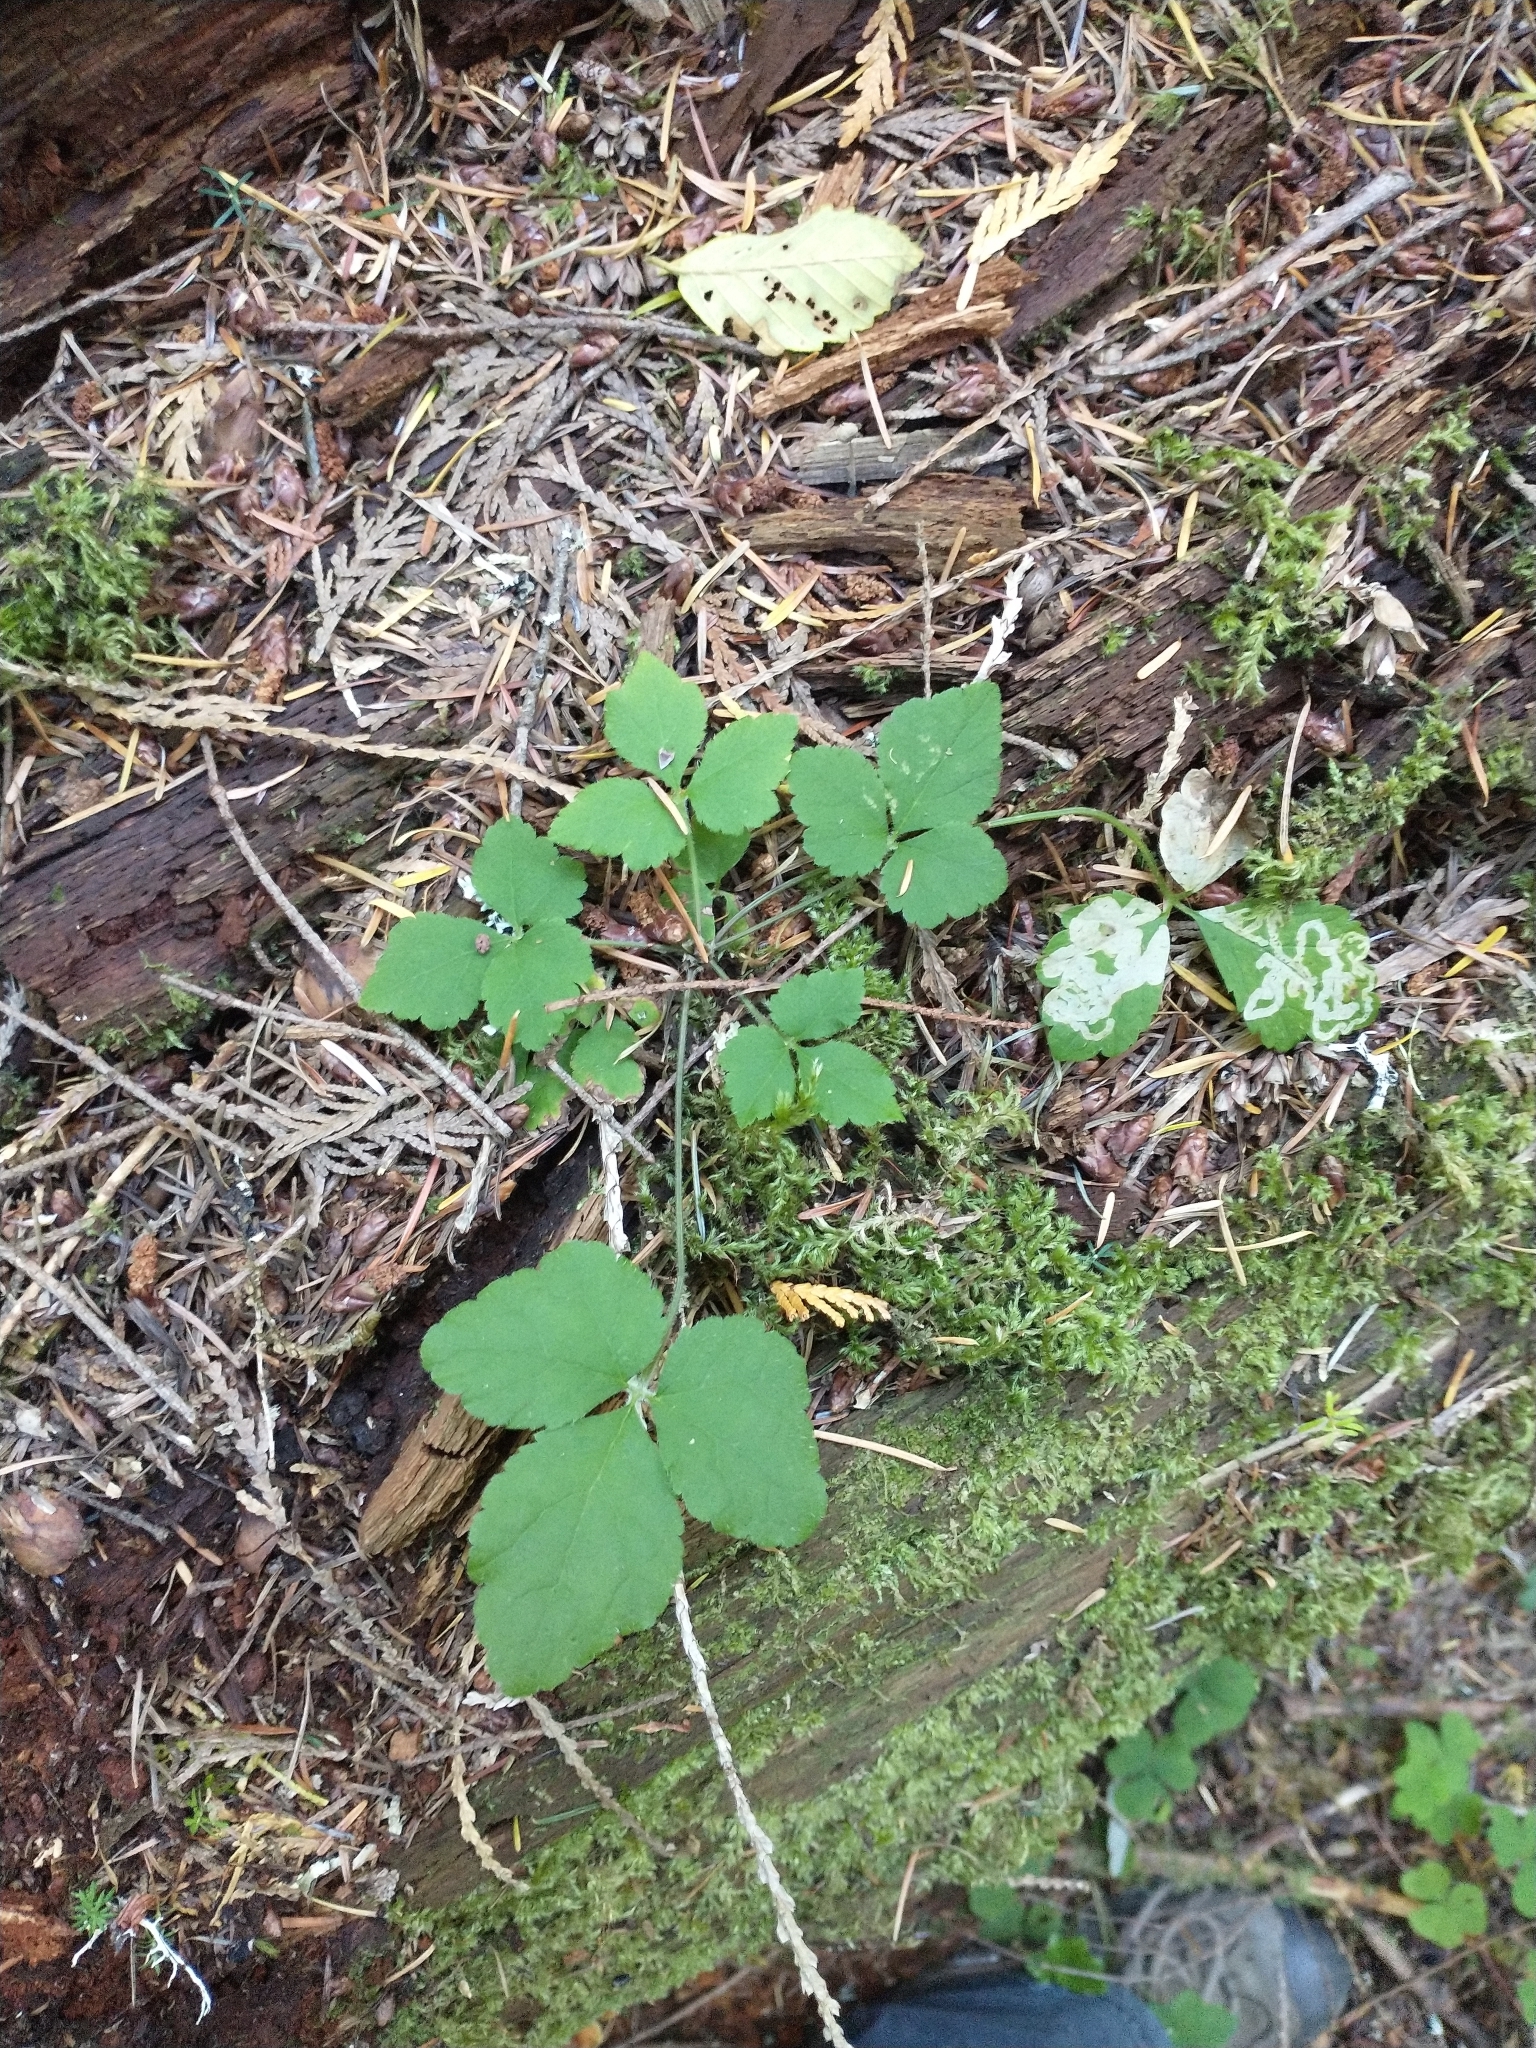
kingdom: Plantae
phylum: Tracheophyta
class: Magnoliopsida
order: Saxifragales
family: Saxifragaceae
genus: Tiarella
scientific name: Tiarella trifoliata
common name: Sugar-scoop
